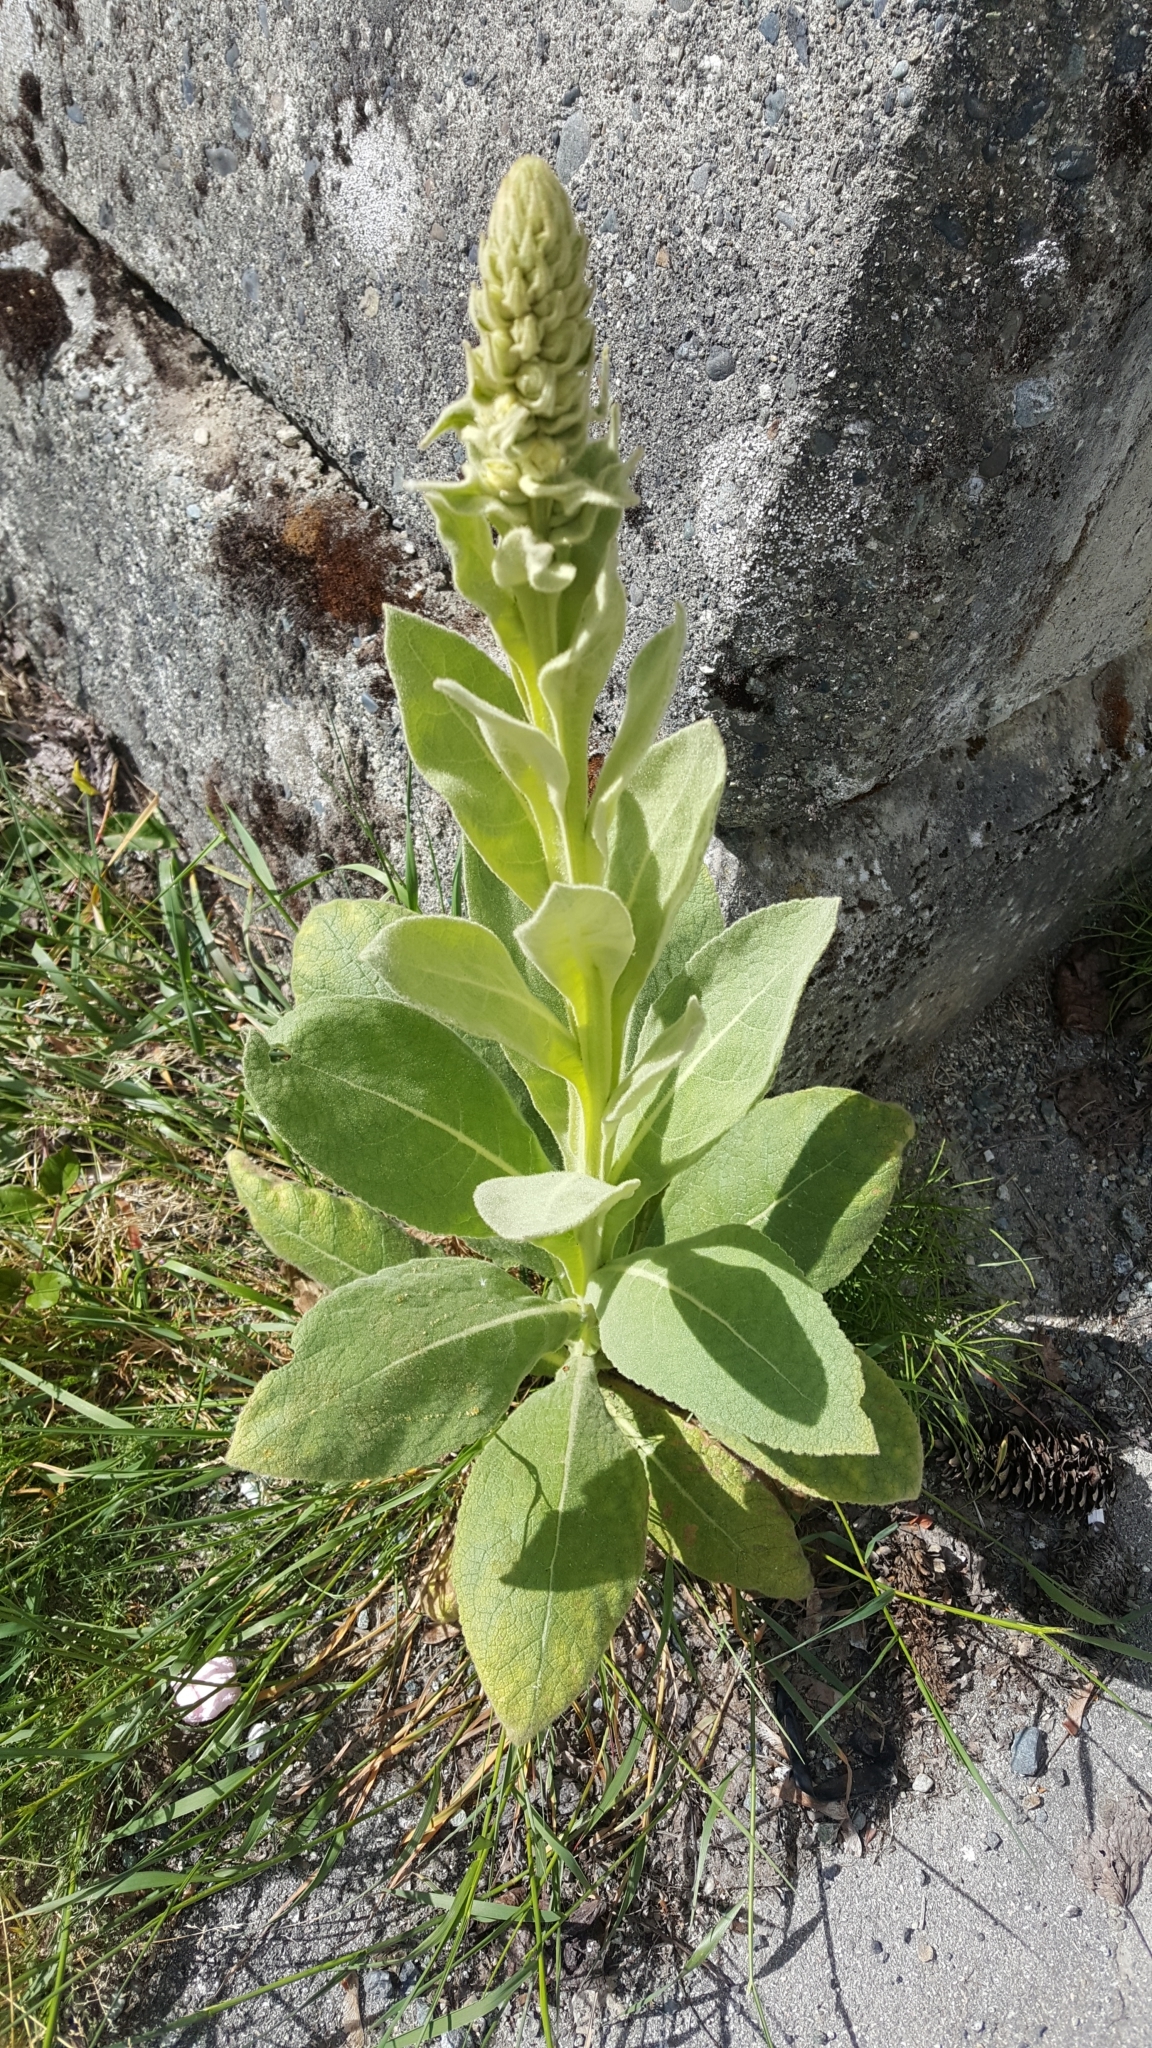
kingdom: Plantae
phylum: Tracheophyta
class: Magnoliopsida
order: Lamiales
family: Scrophulariaceae
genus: Verbascum
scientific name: Verbascum thapsus
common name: Common mullein
